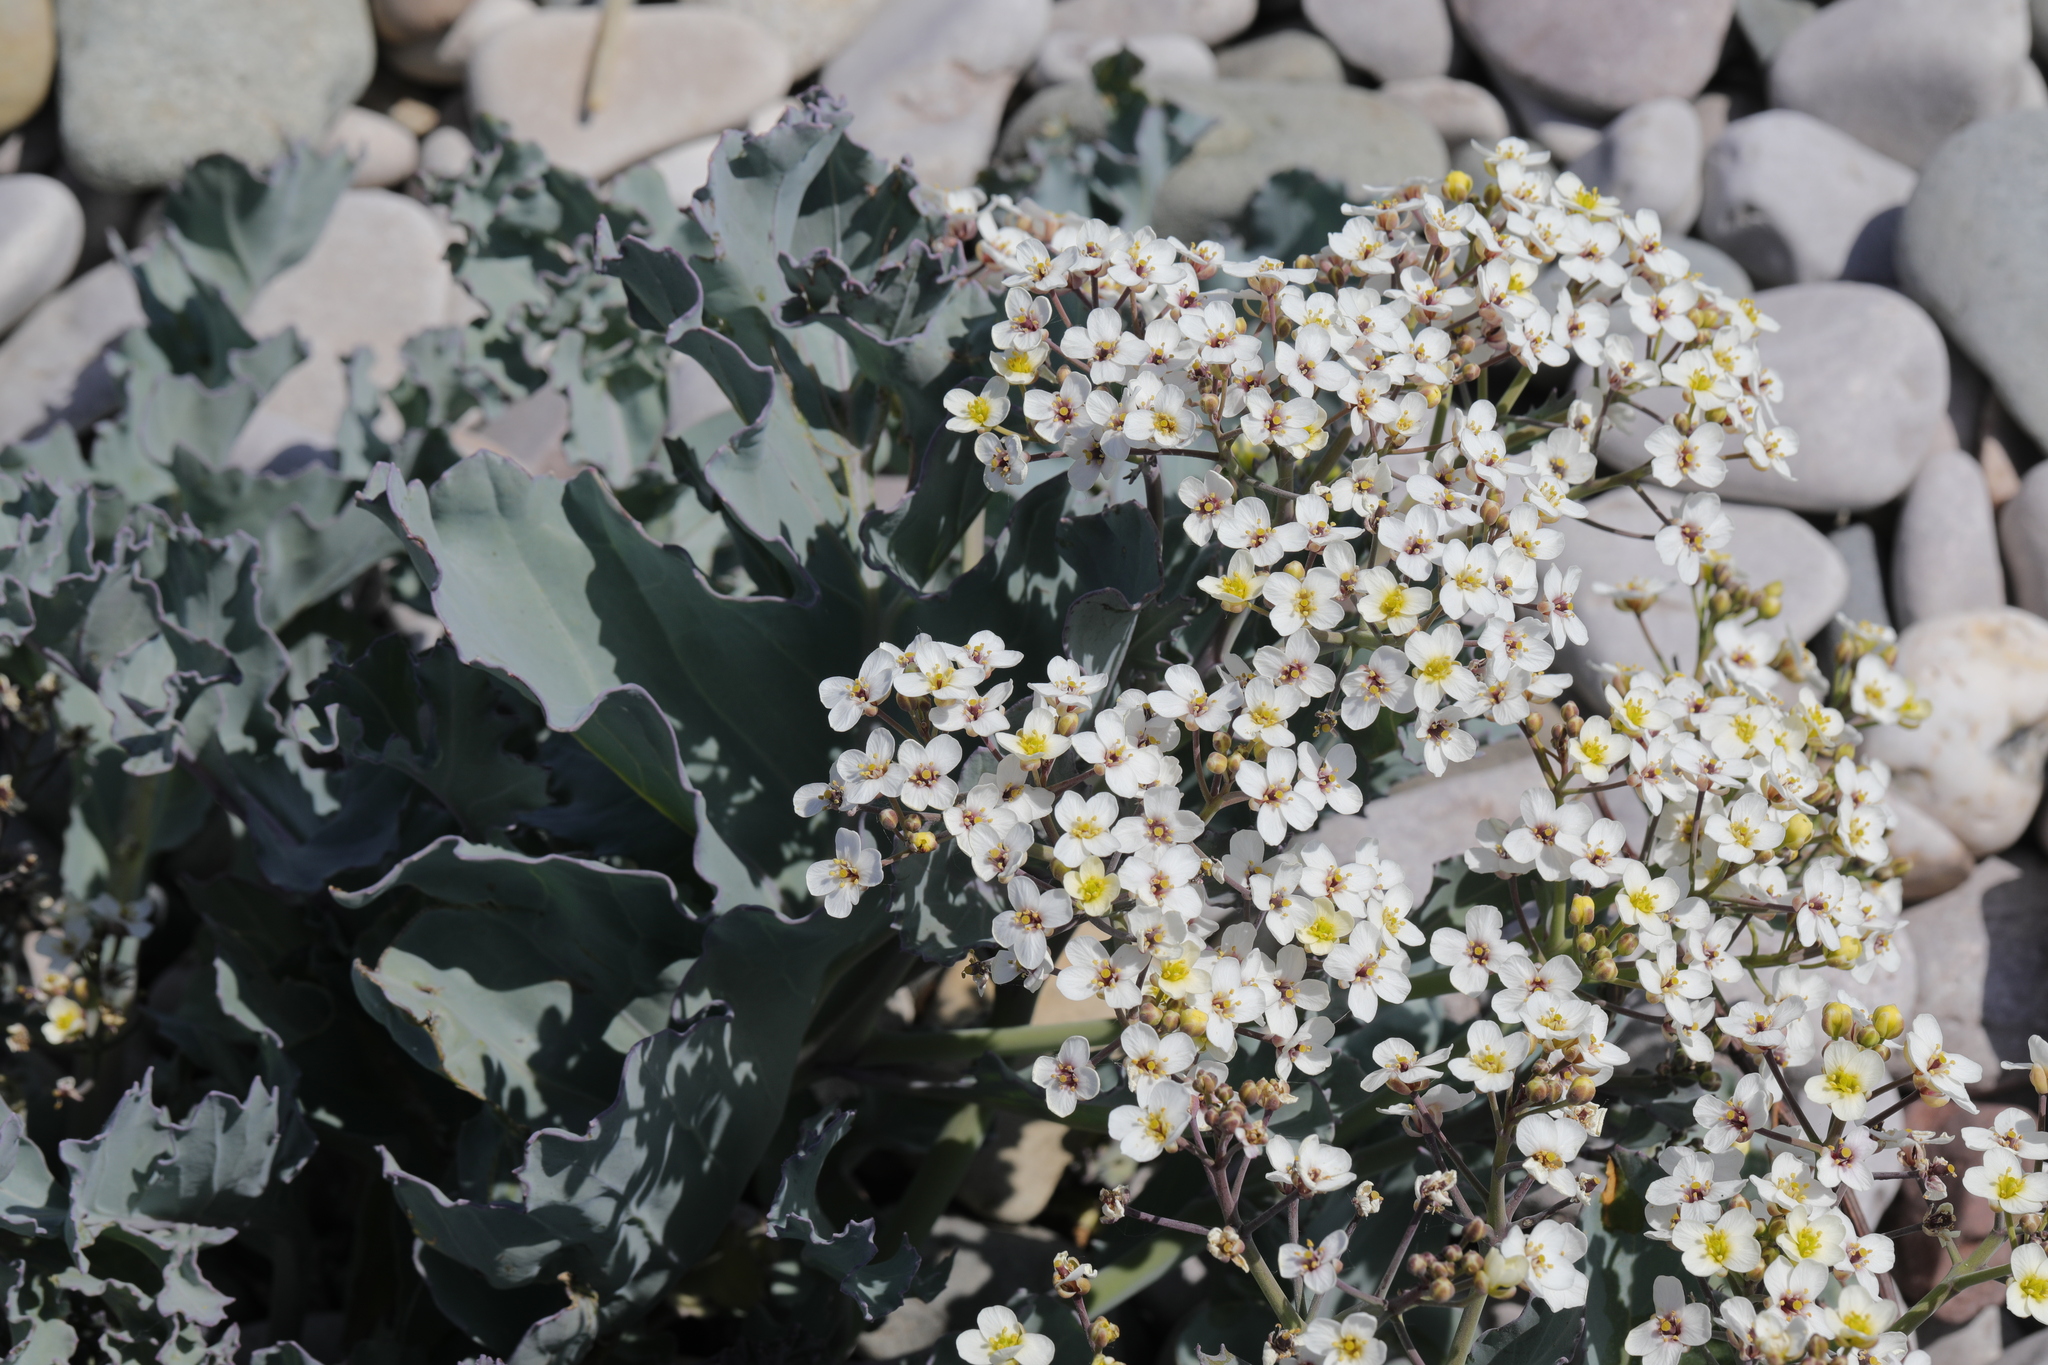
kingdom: Plantae
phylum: Tracheophyta
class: Magnoliopsida
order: Brassicales
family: Brassicaceae
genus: Crambe
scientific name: Crambe maritima
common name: Sea-kale
